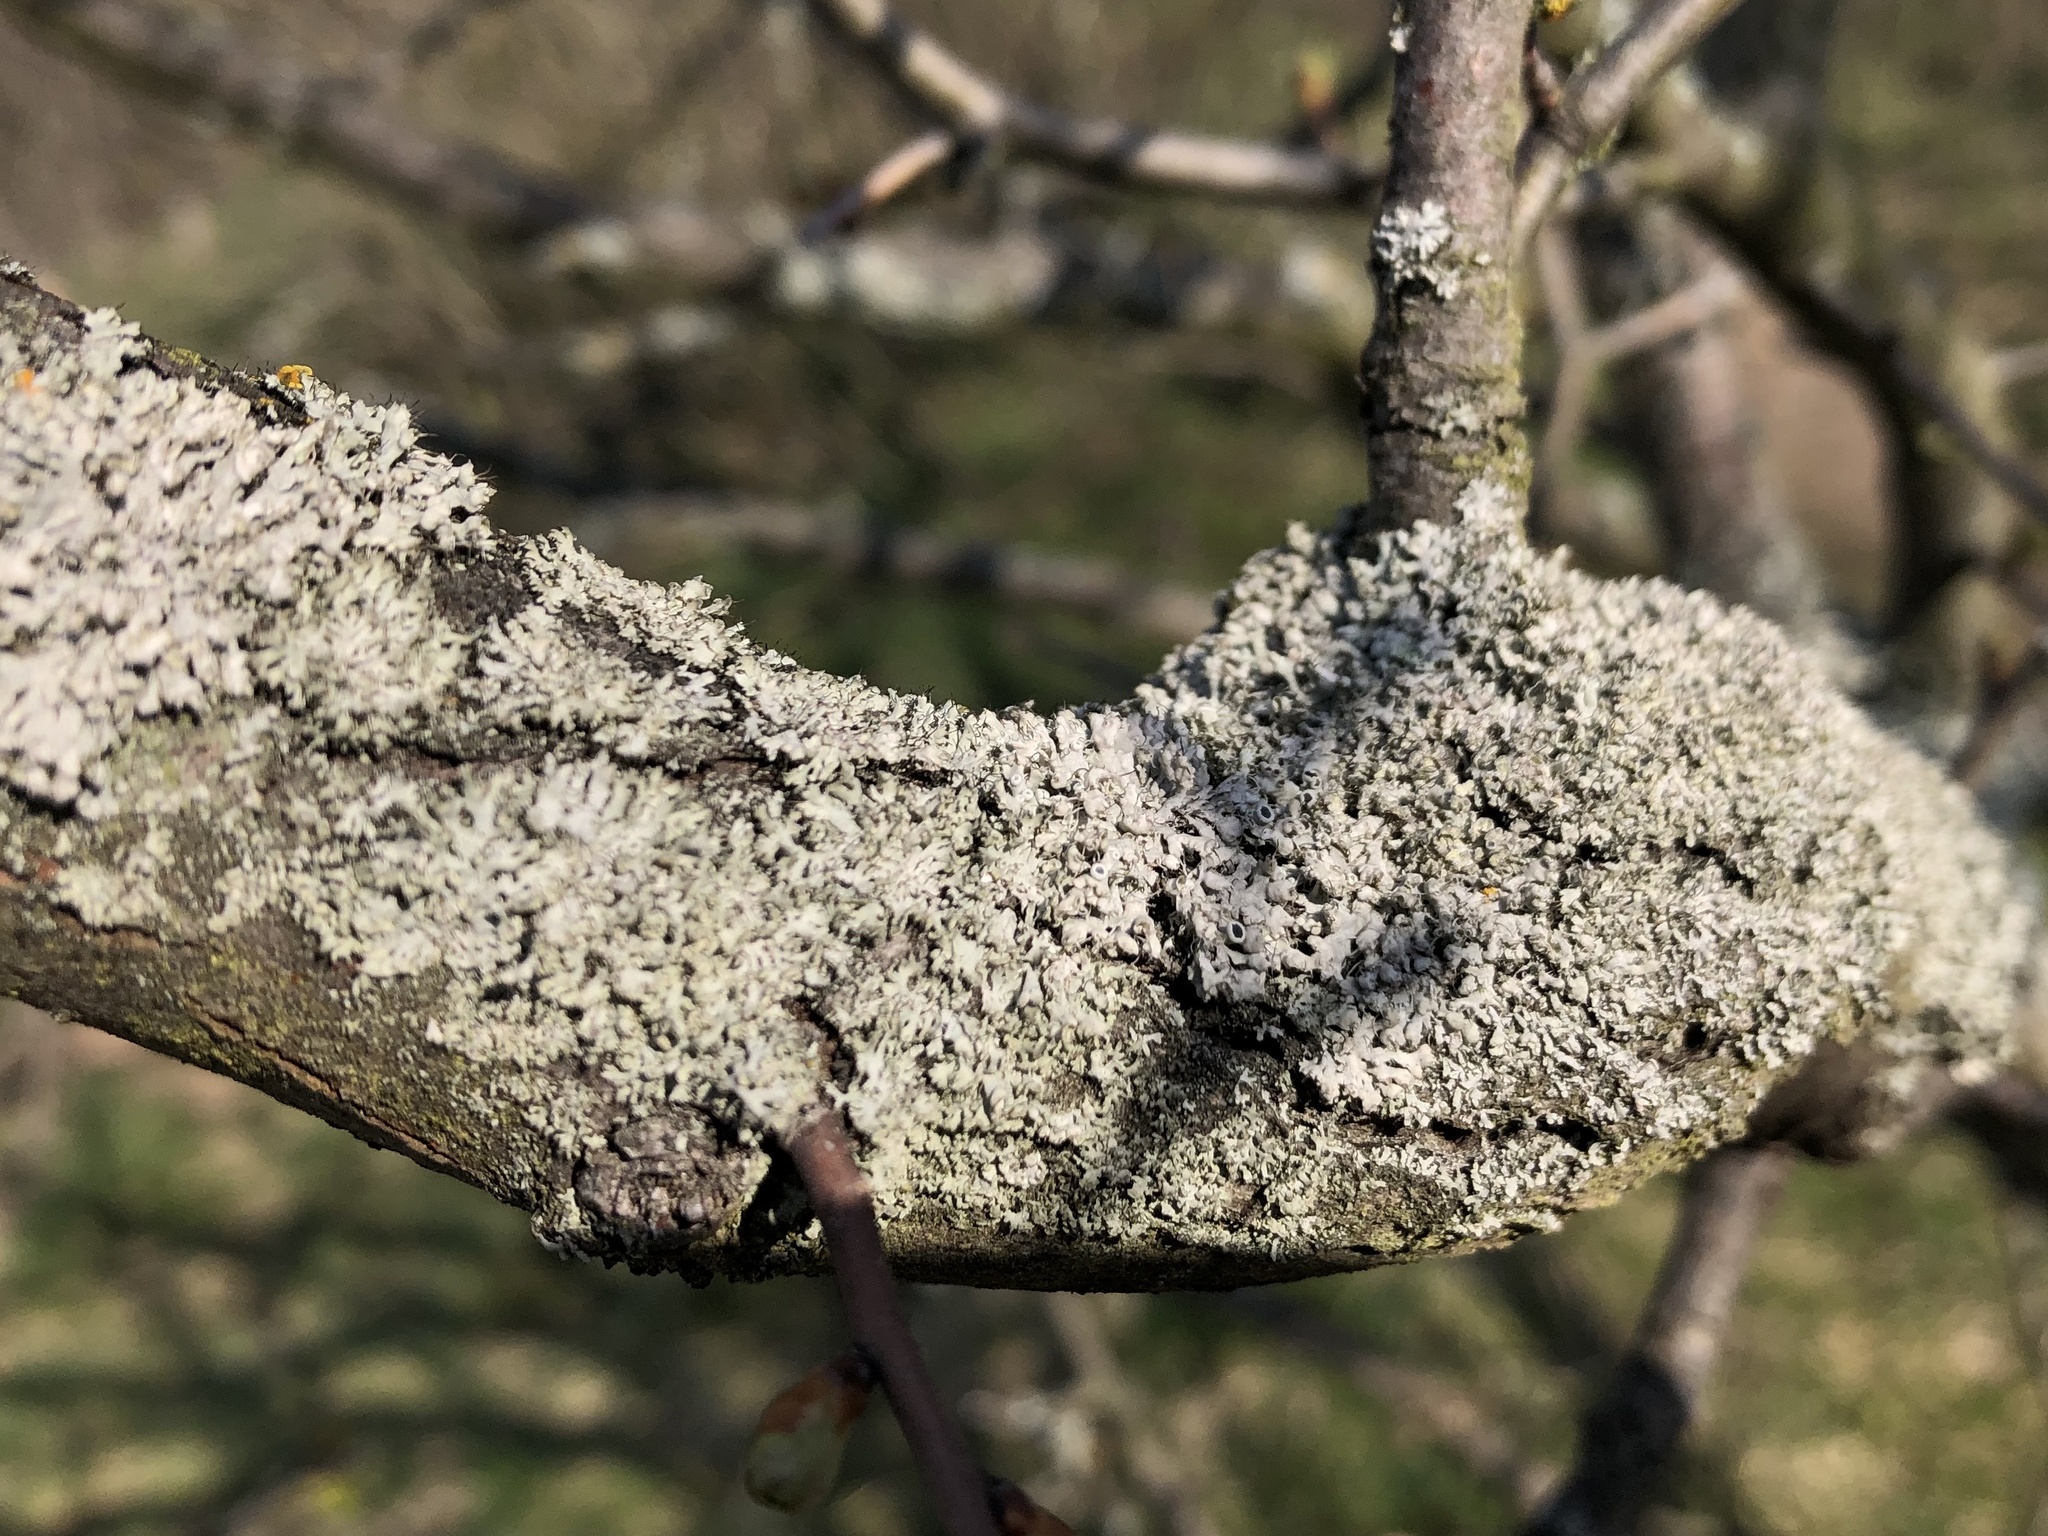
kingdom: Fungi
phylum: Ascomycota
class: Lecanoromycetes
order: Caliciales
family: Physciaceae
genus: Physcia
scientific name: Physcia adscendens
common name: Hooded rosette lichen
